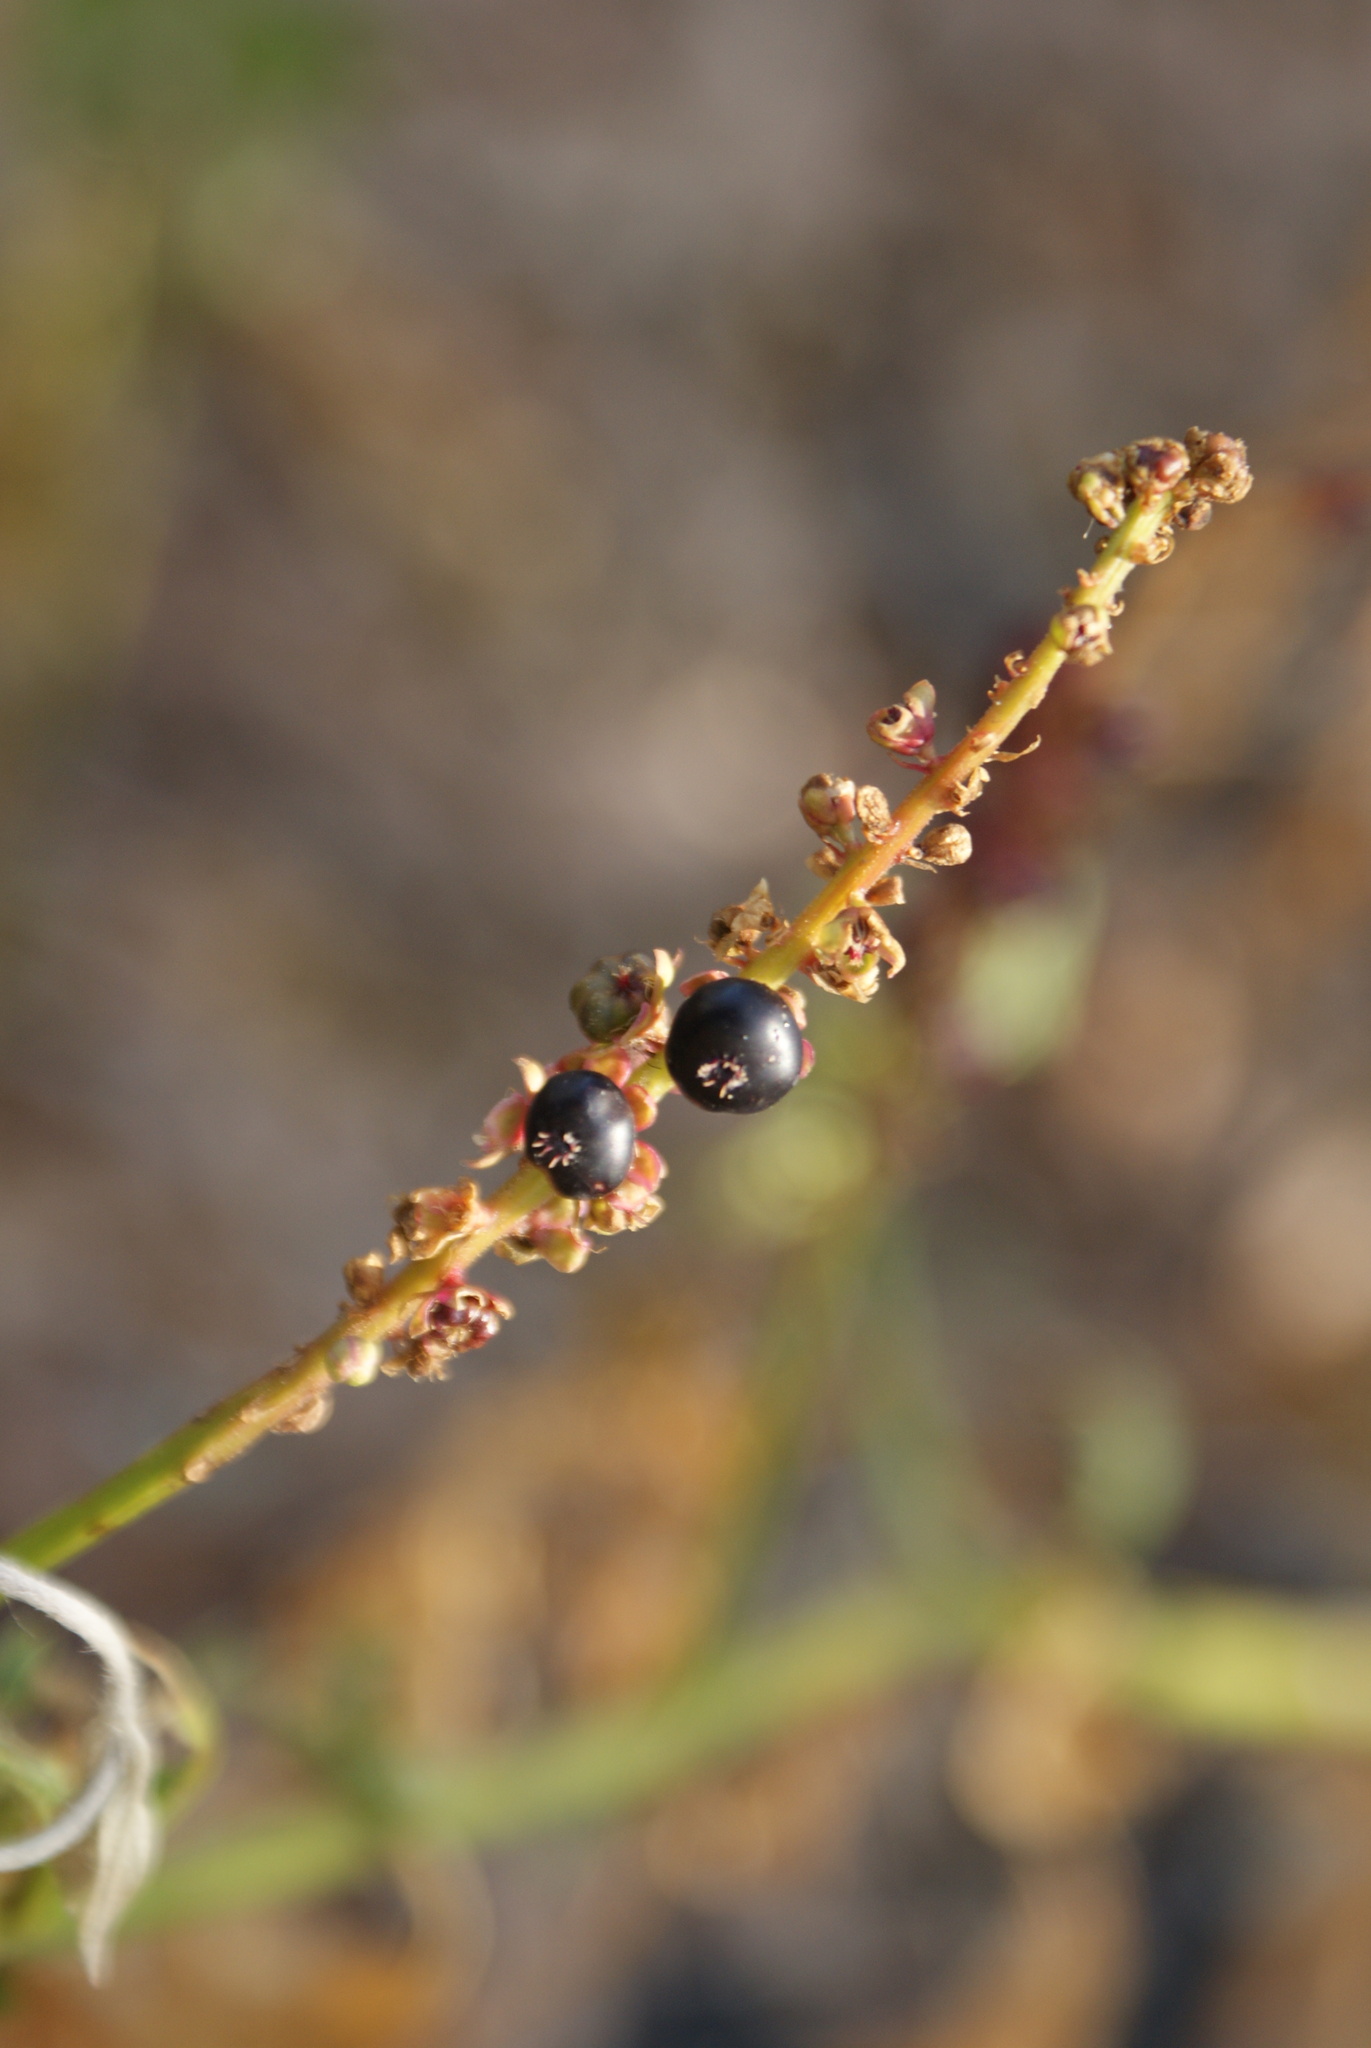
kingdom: Plantae
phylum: Tracheophyta
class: Magnoliopsida
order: Caryophyllales
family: Phytolaccaceae
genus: Phytolacca
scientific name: Phytolacca icosandra
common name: Button pokeweed
